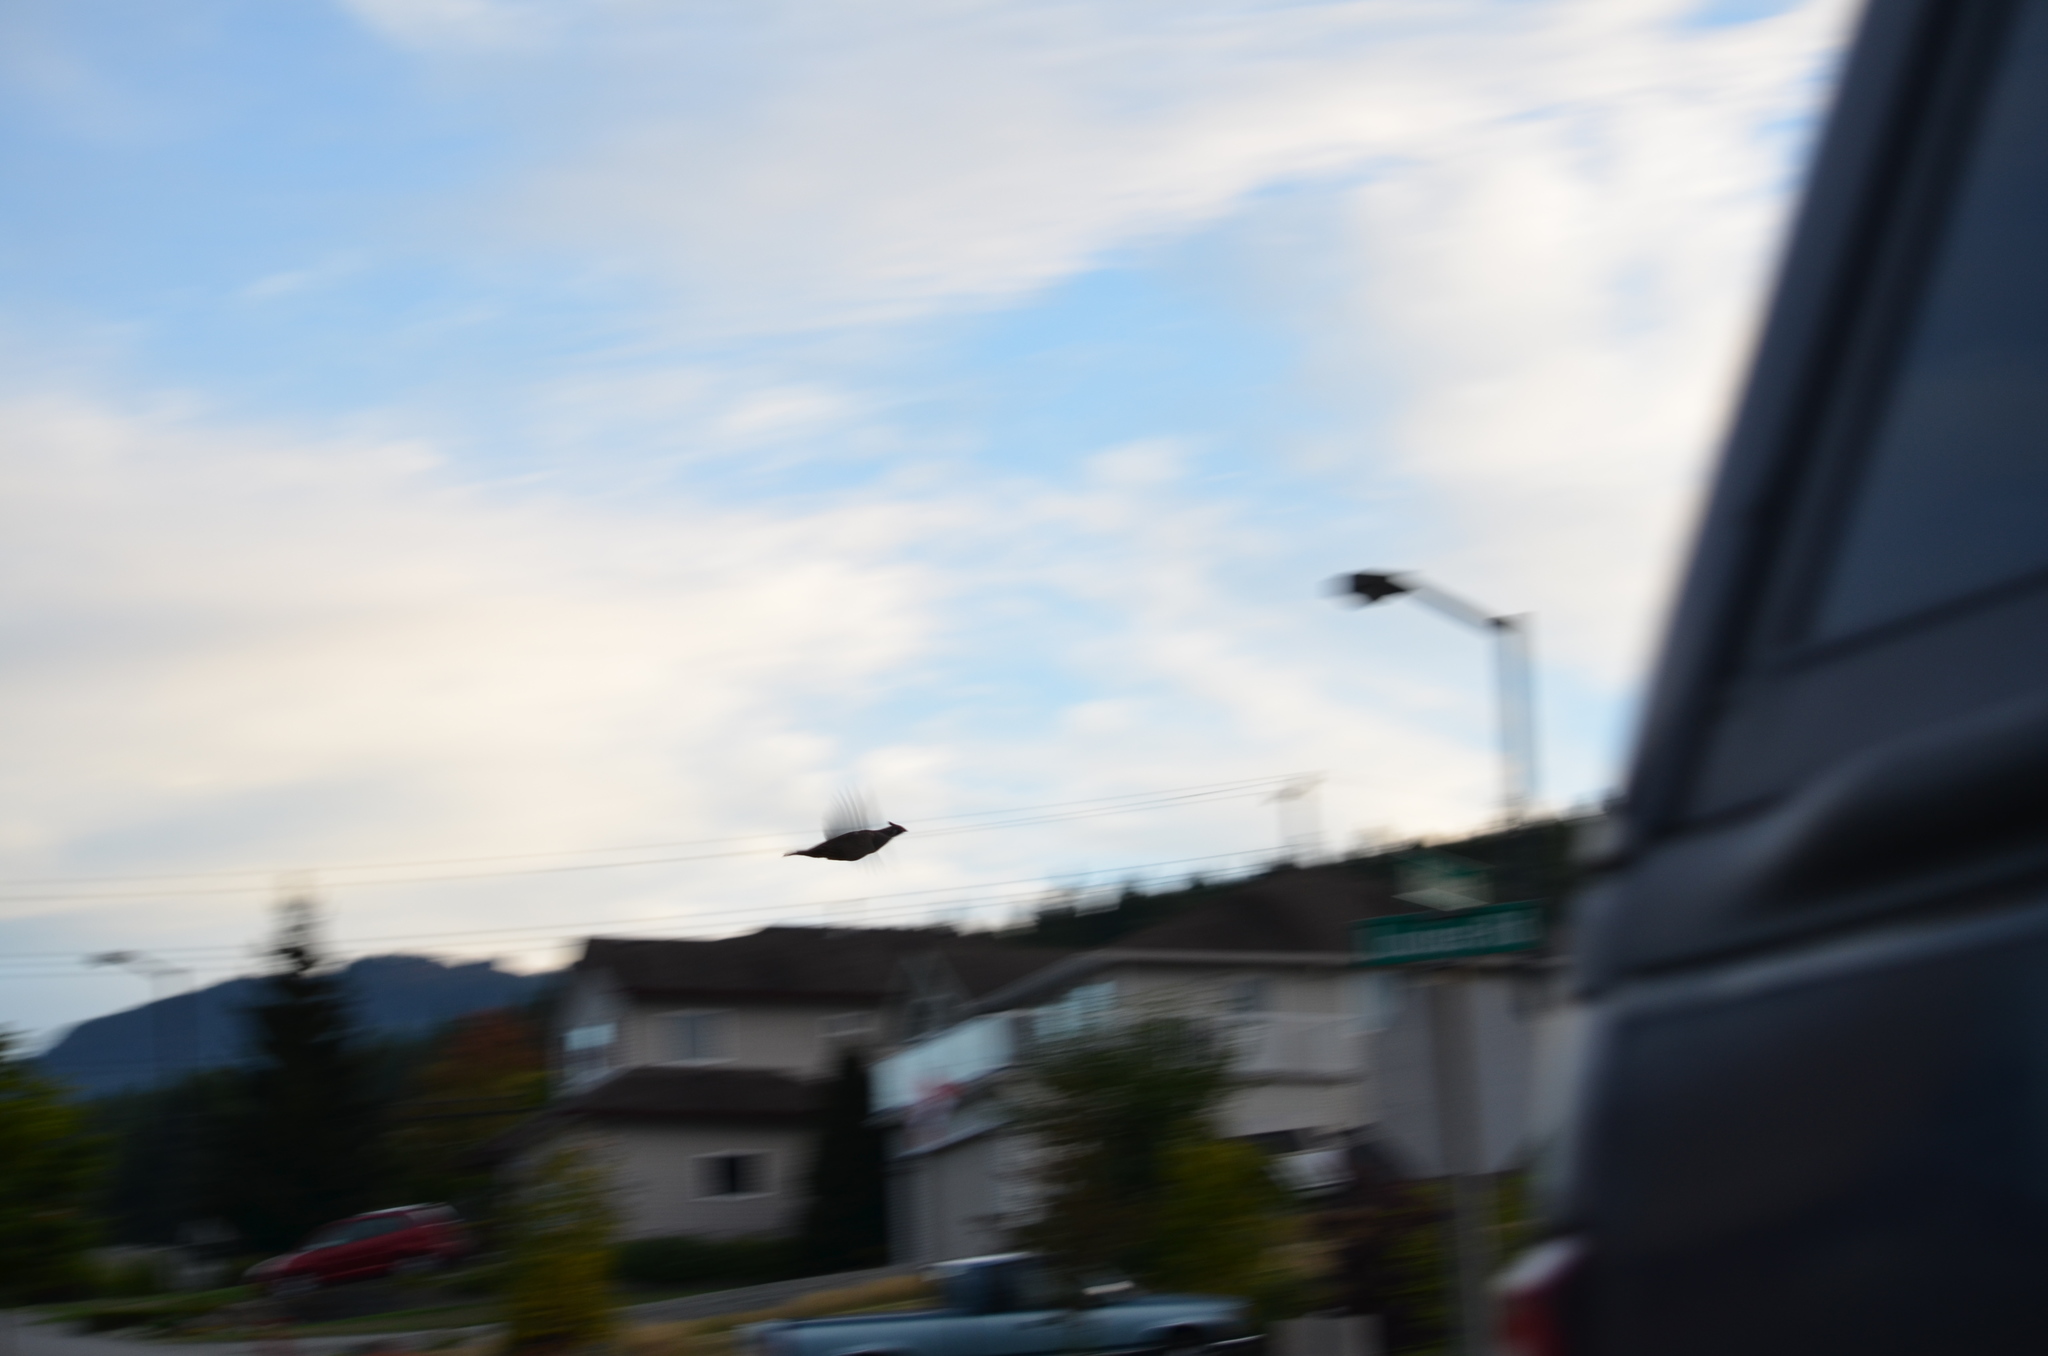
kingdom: Animalia
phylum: Chordata
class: Aves
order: Galliformes
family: Odontophoridae
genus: Callipepla
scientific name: Callipepla californica
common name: California quail
